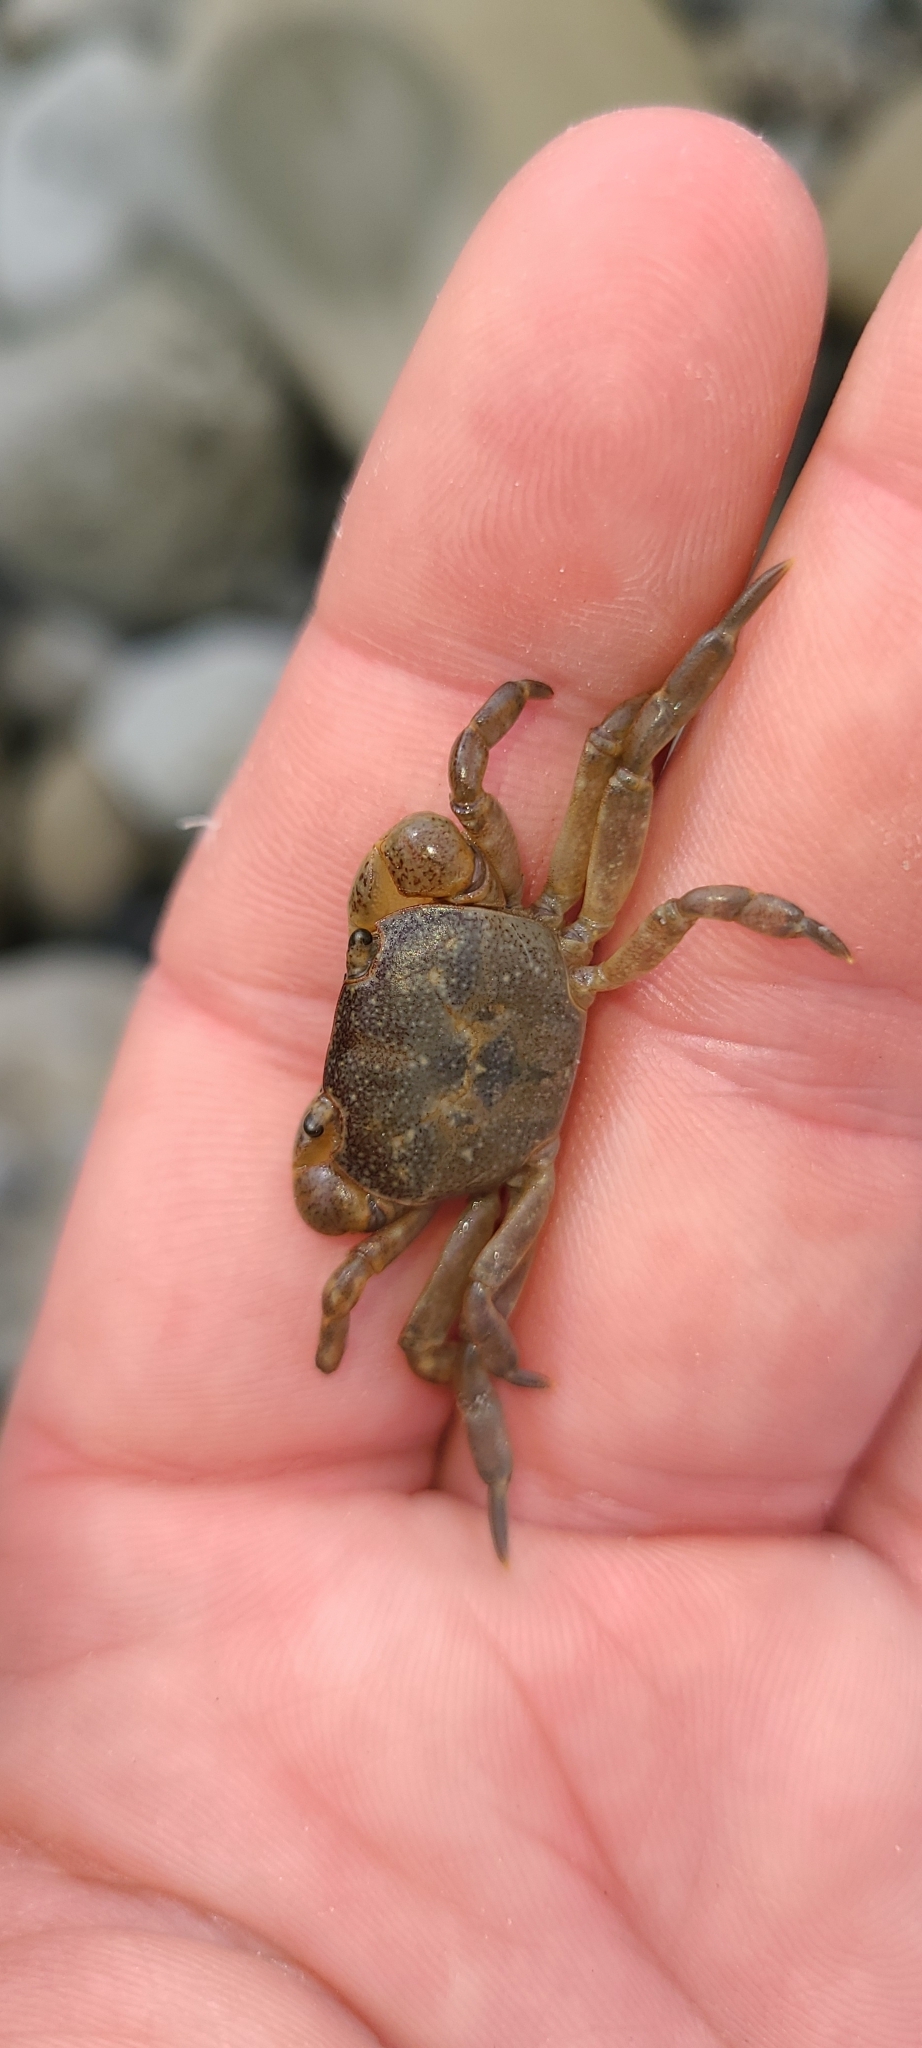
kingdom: Animalia
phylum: Arthropoda
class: Malacostraca
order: Decapoda
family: Varunidae
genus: Cyclograpsus
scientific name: Cyclograpsus lavauxi
